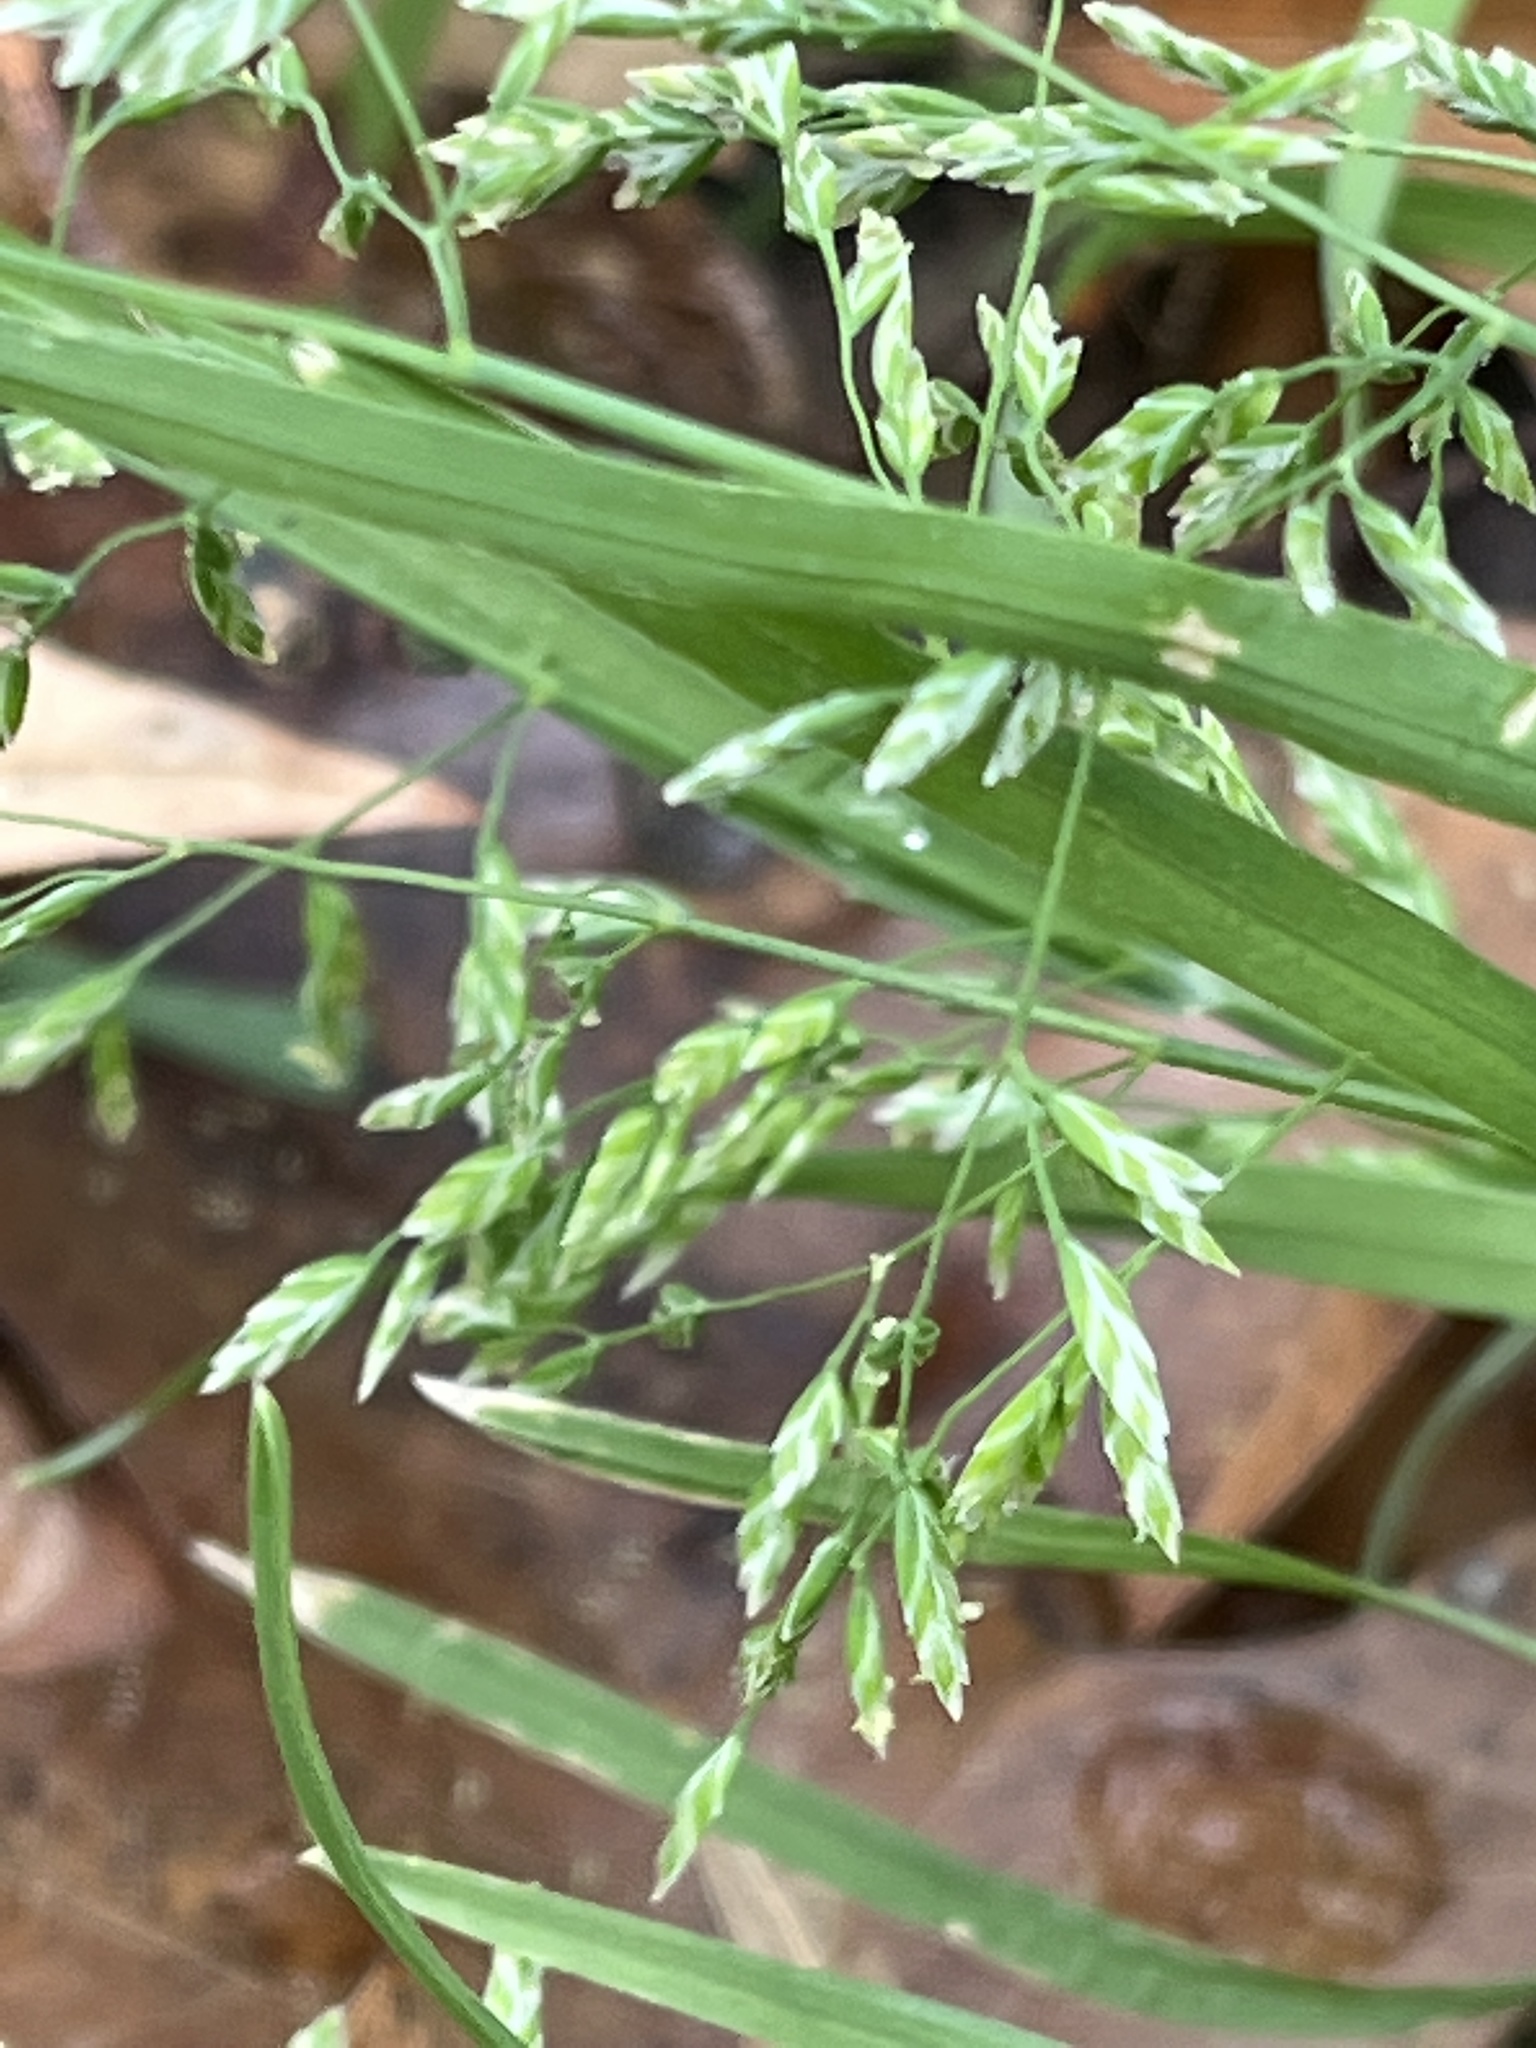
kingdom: Plantae
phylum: Tracheophyta
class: Liliopsida
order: Poales
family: Poaceae
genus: Poa
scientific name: Poa annua
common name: Annual bluegrass
